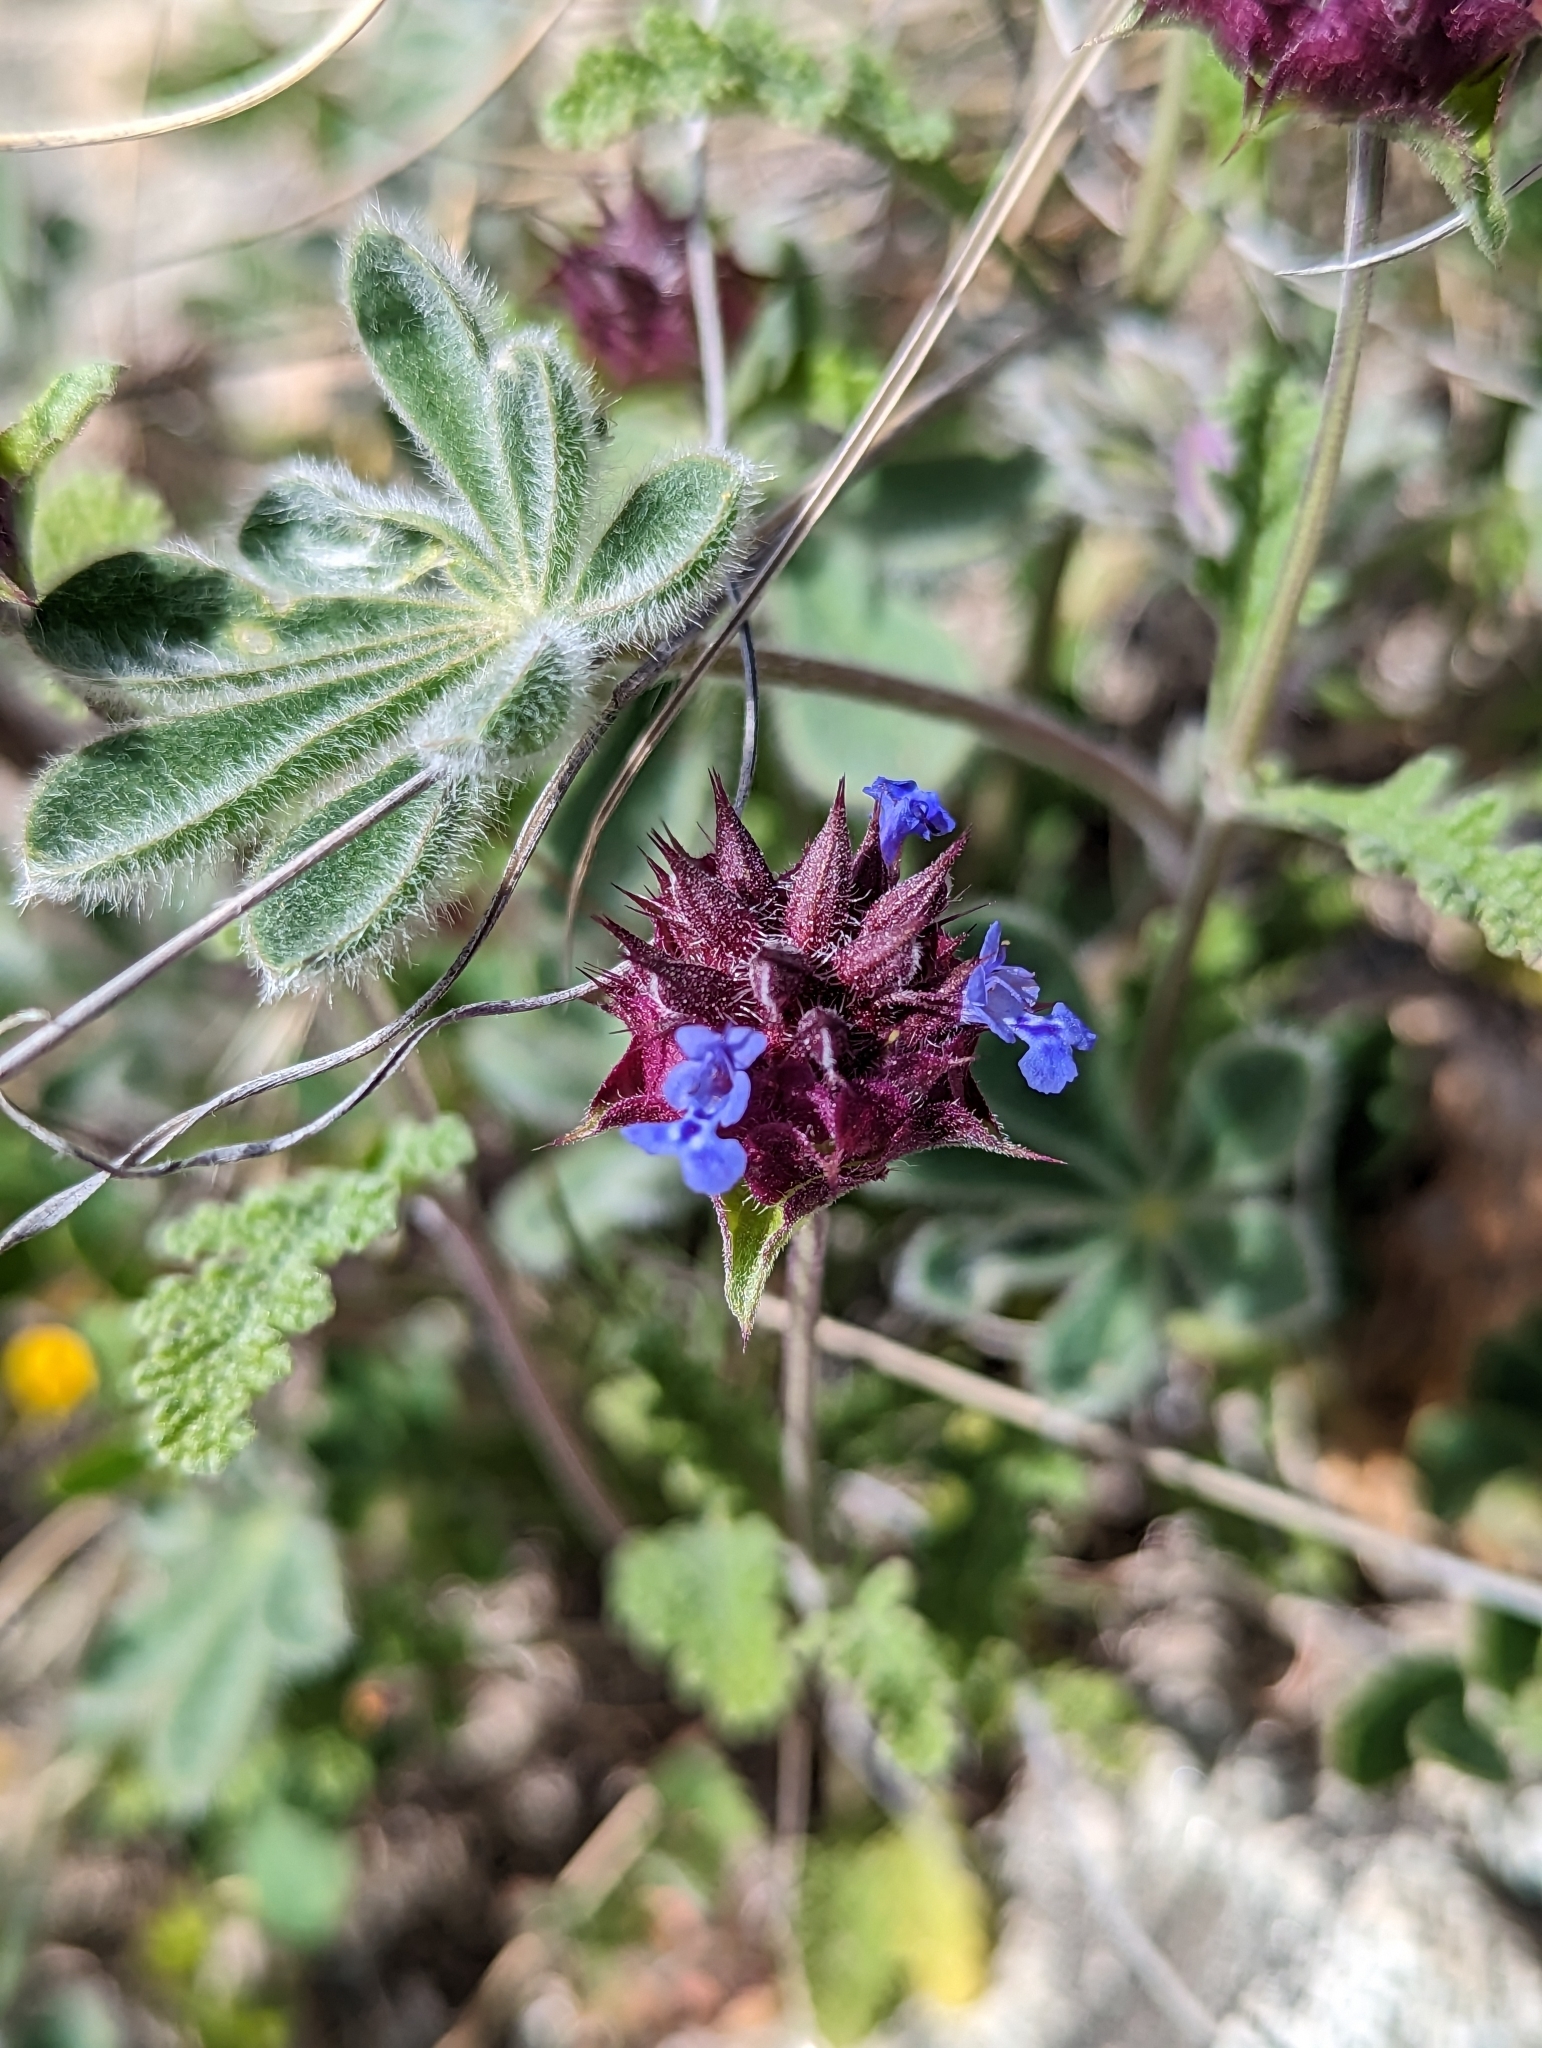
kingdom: Plantae
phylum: Tracheophyta
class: Magnoliopsida
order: Lamiales
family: Lamiaceae
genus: Salvia
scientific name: Salvia columbariae
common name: Chia
